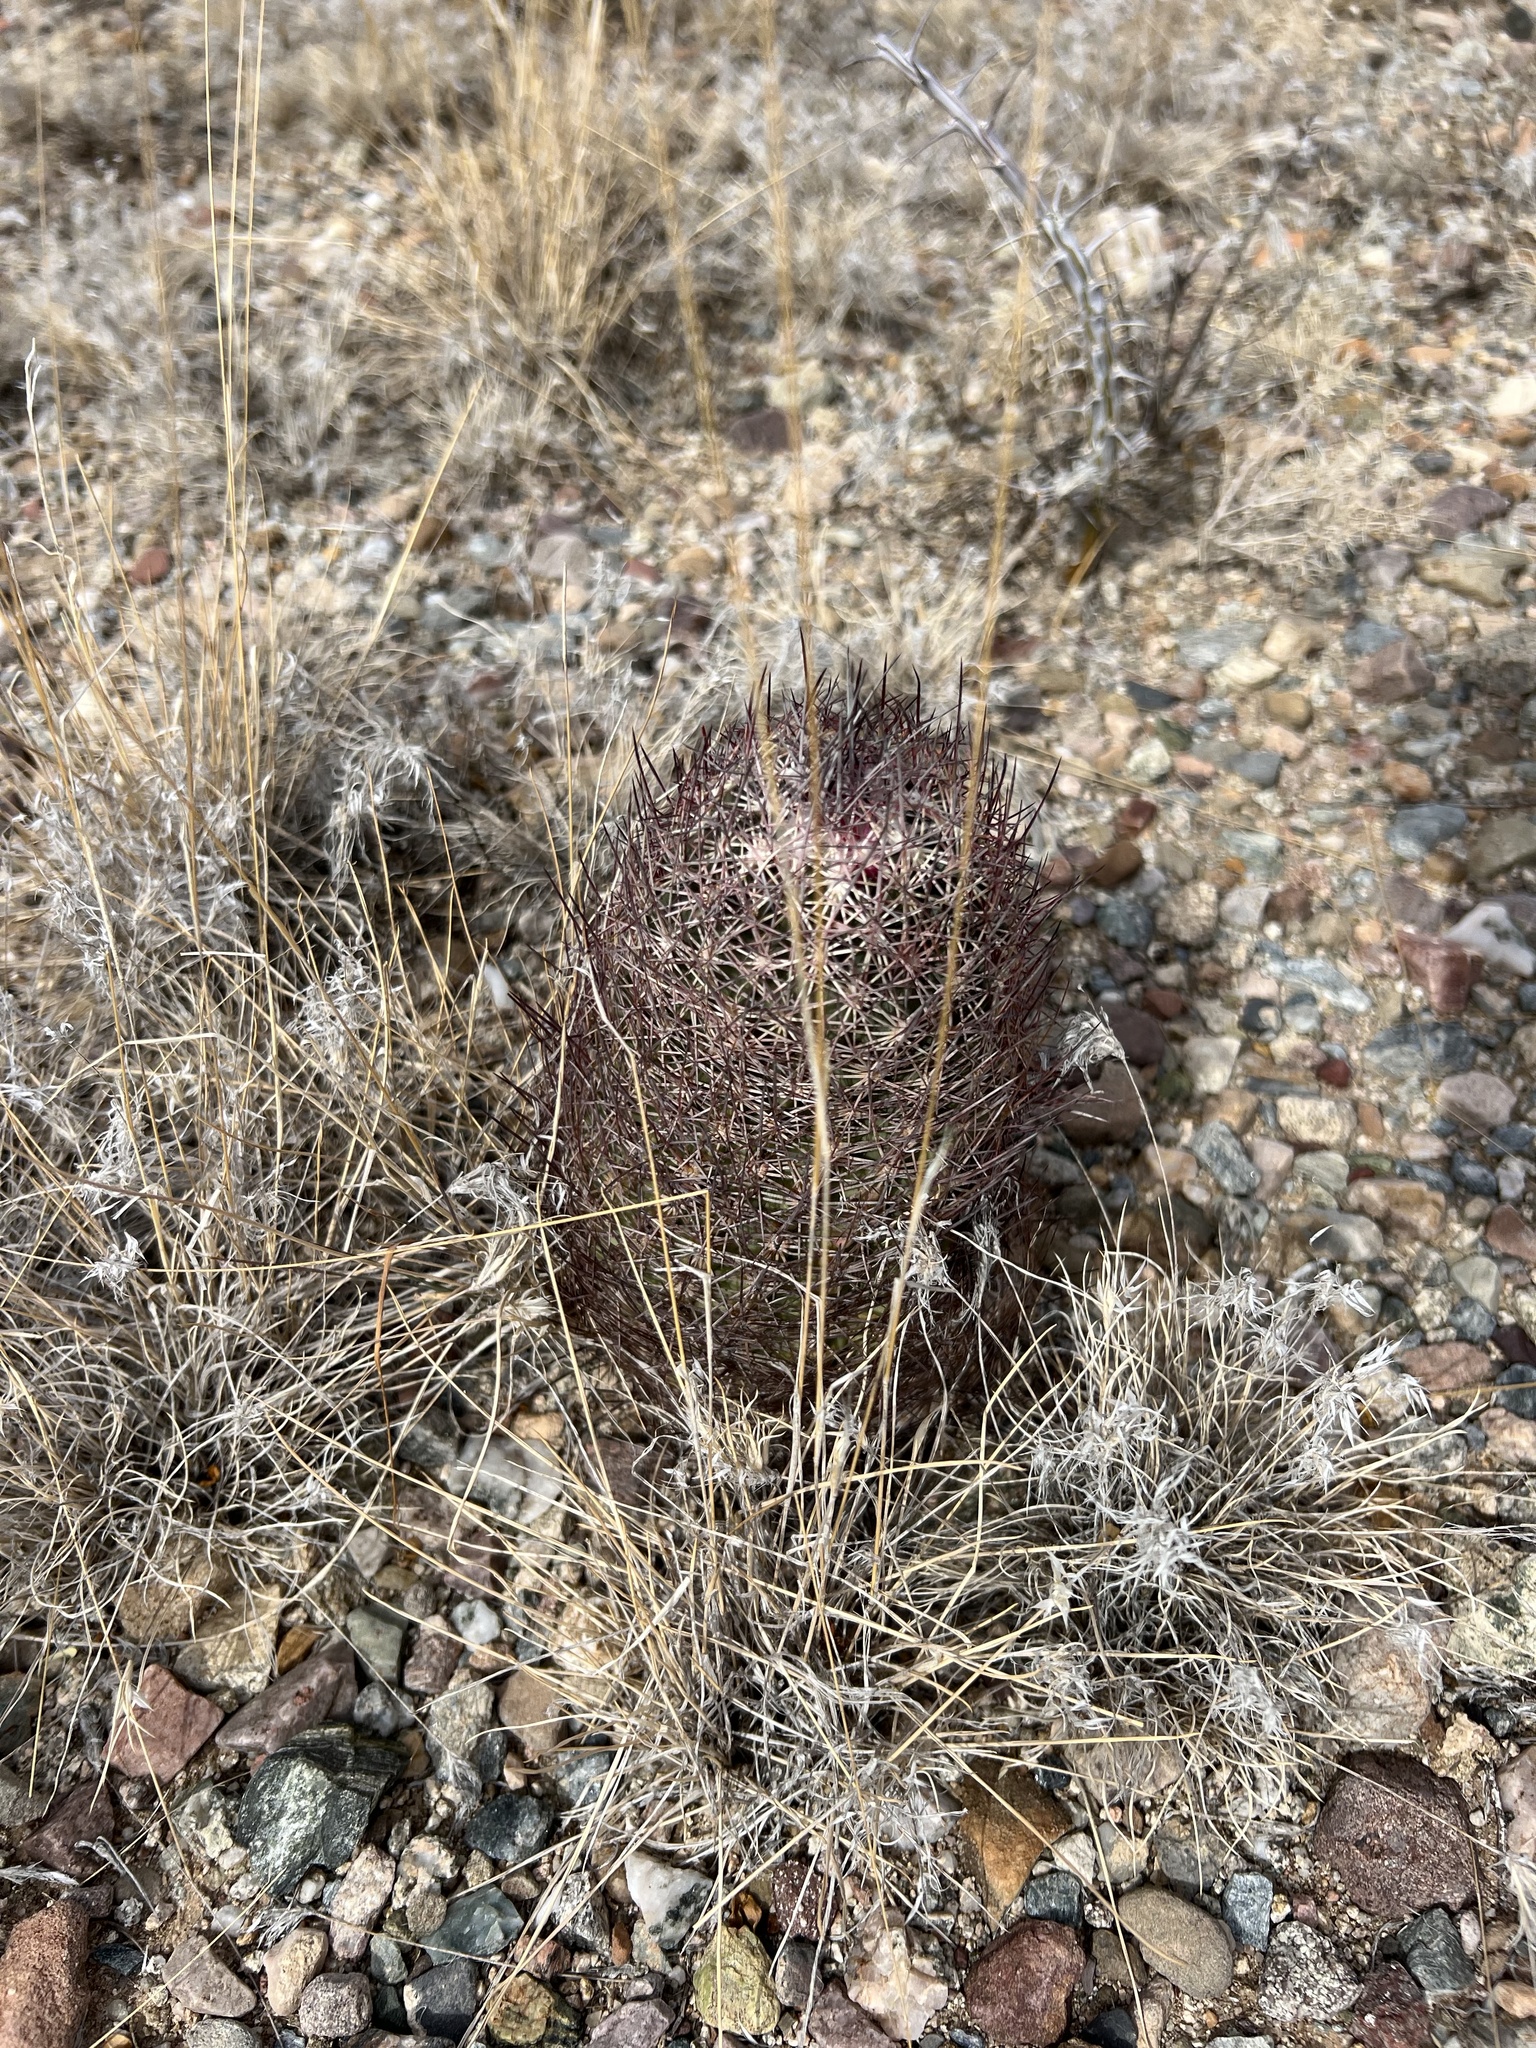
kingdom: Plantae
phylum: Tracheophyta
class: Magnoliopsida
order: Caryophyllales
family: Cactaceae
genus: Sclerocactus
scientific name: Sclerocactus johnsonii
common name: Eight-spine fishhook cactus
